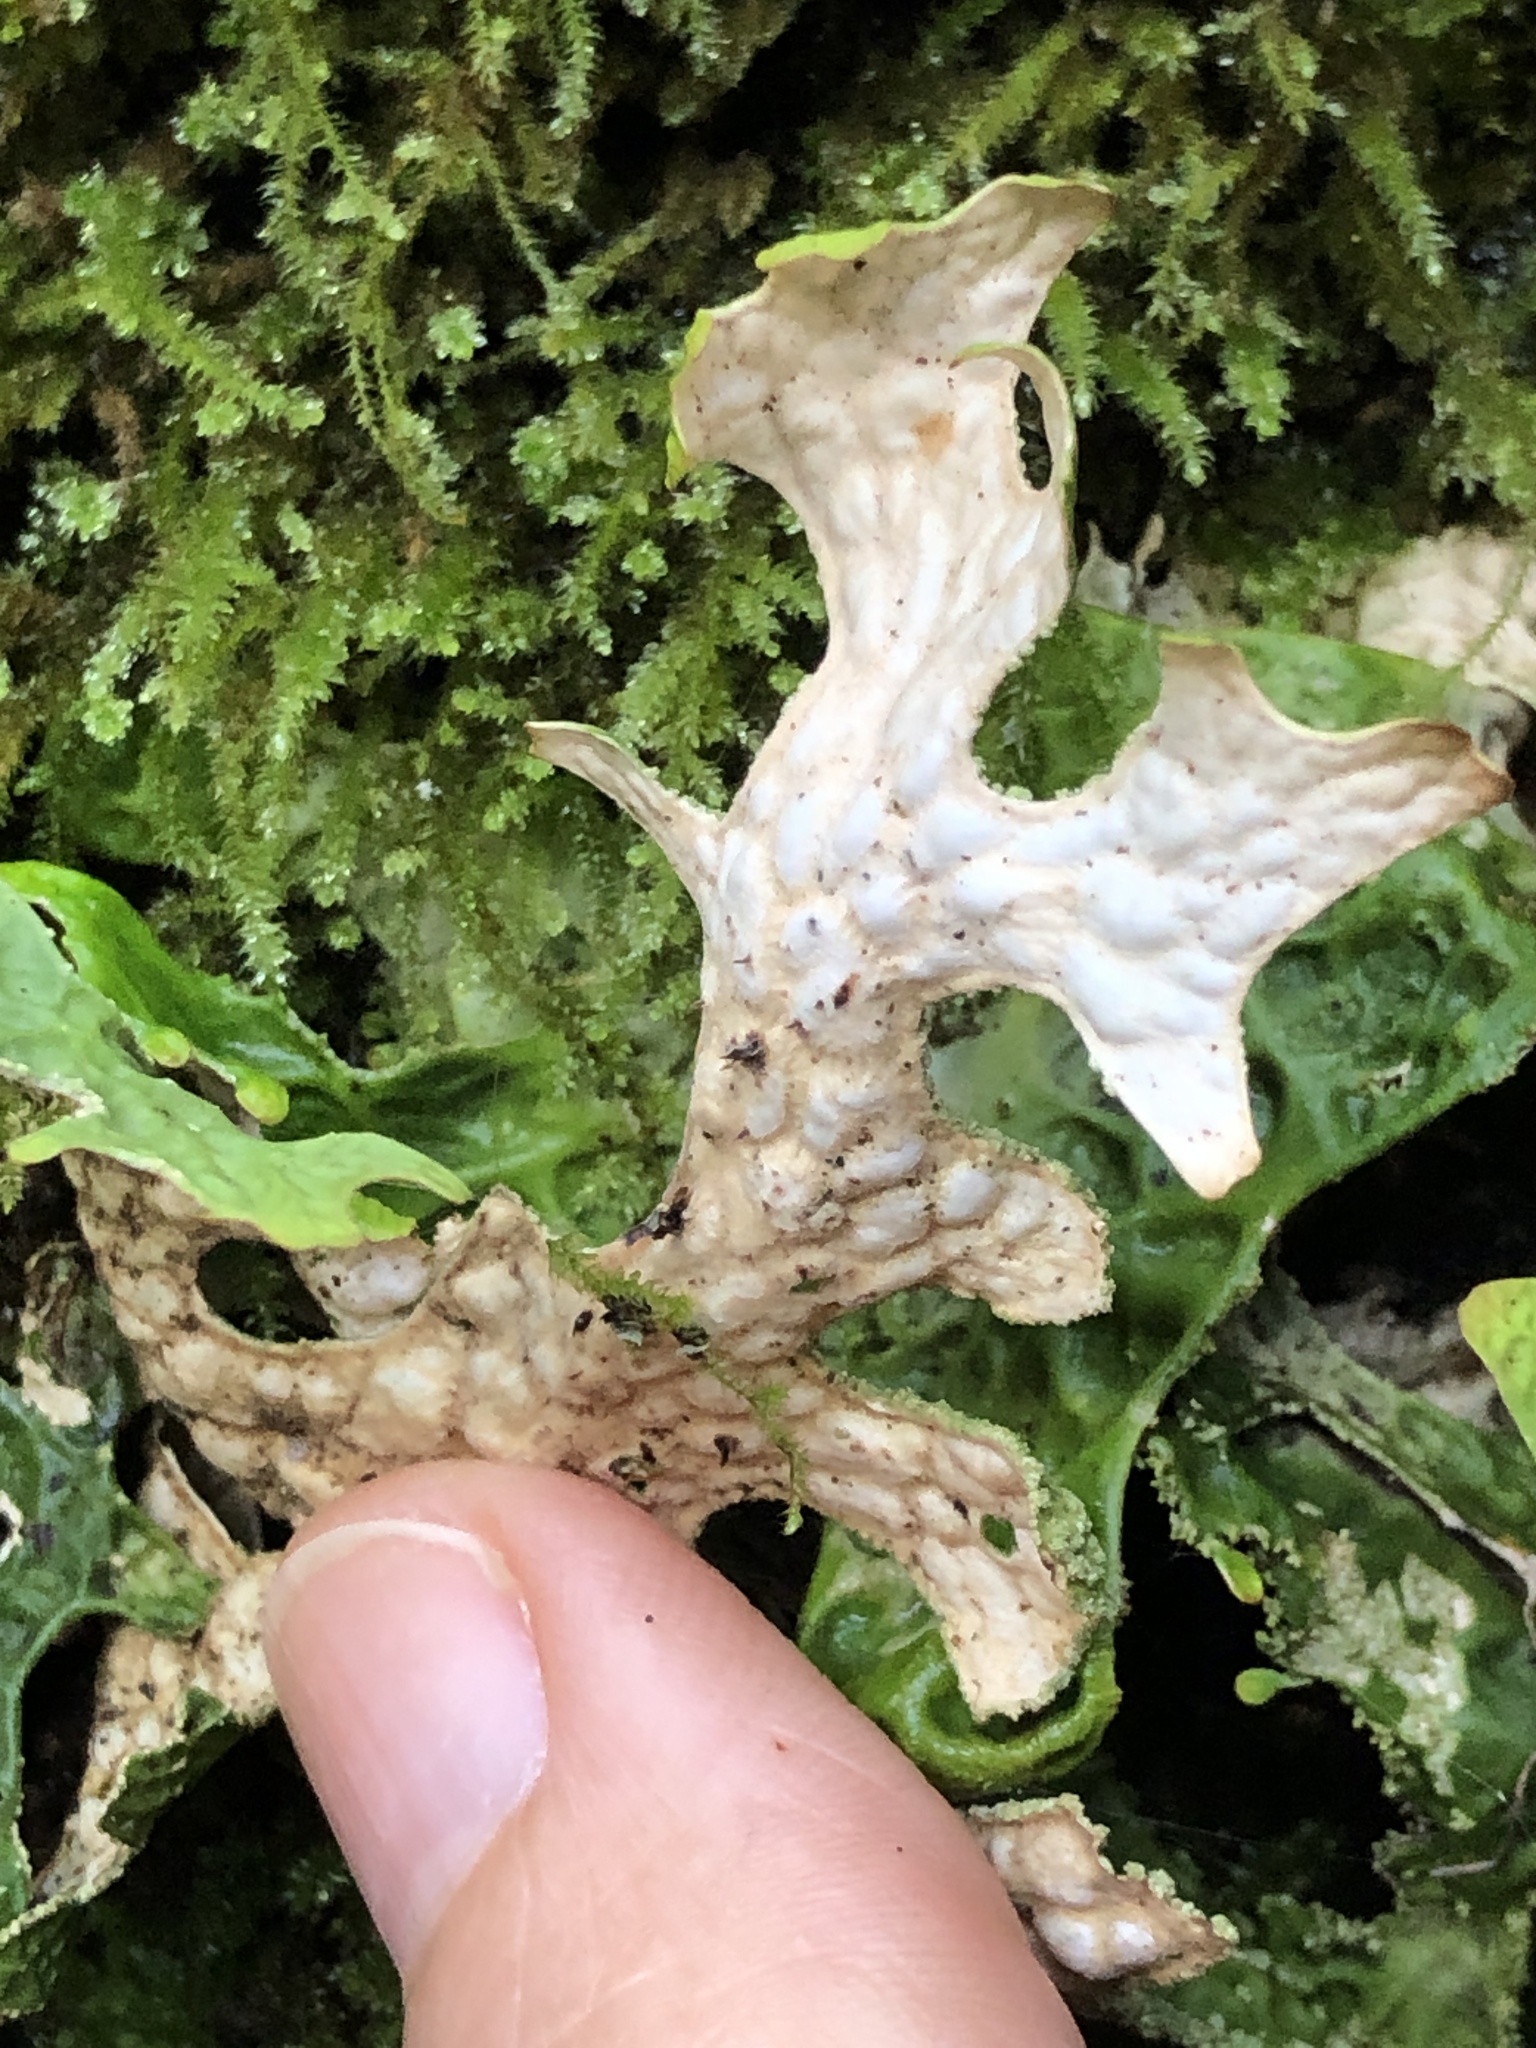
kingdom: Fungi
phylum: Ascomycota
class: Lecanoromycetes
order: Peltigerales
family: Lobariaceae
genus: Lobaria
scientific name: Lobaria pulmonaria
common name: Lungwort
